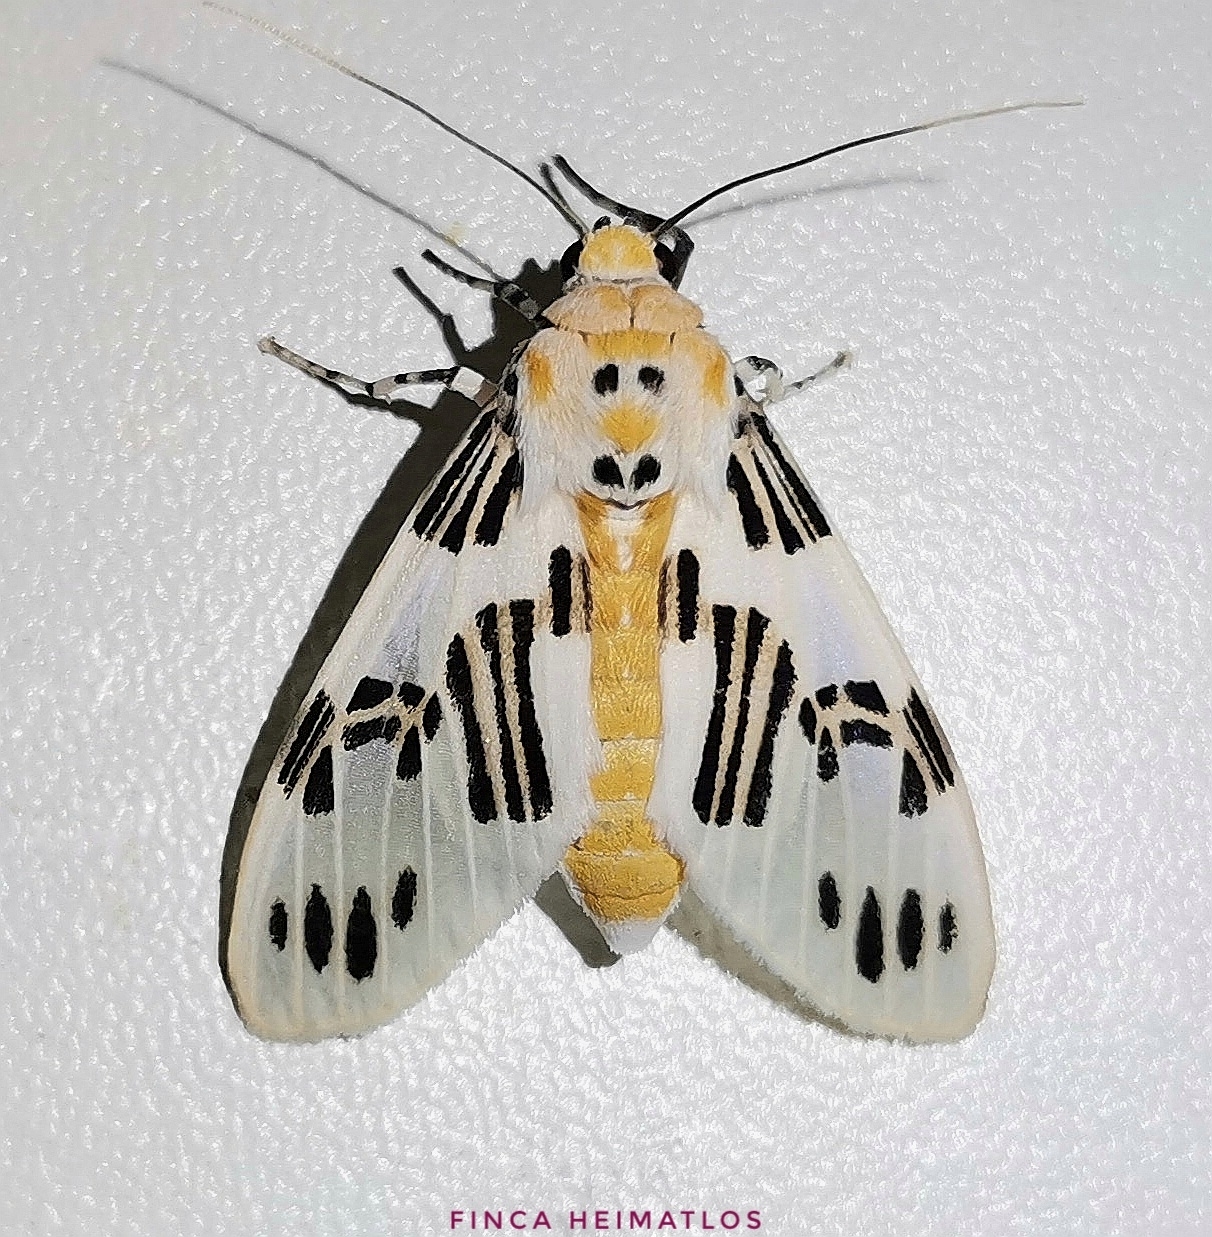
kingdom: Animalia
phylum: Arthropoda
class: Insecta
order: Lepidoptera
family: Erebidae
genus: Idalus
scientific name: Idalus daga
